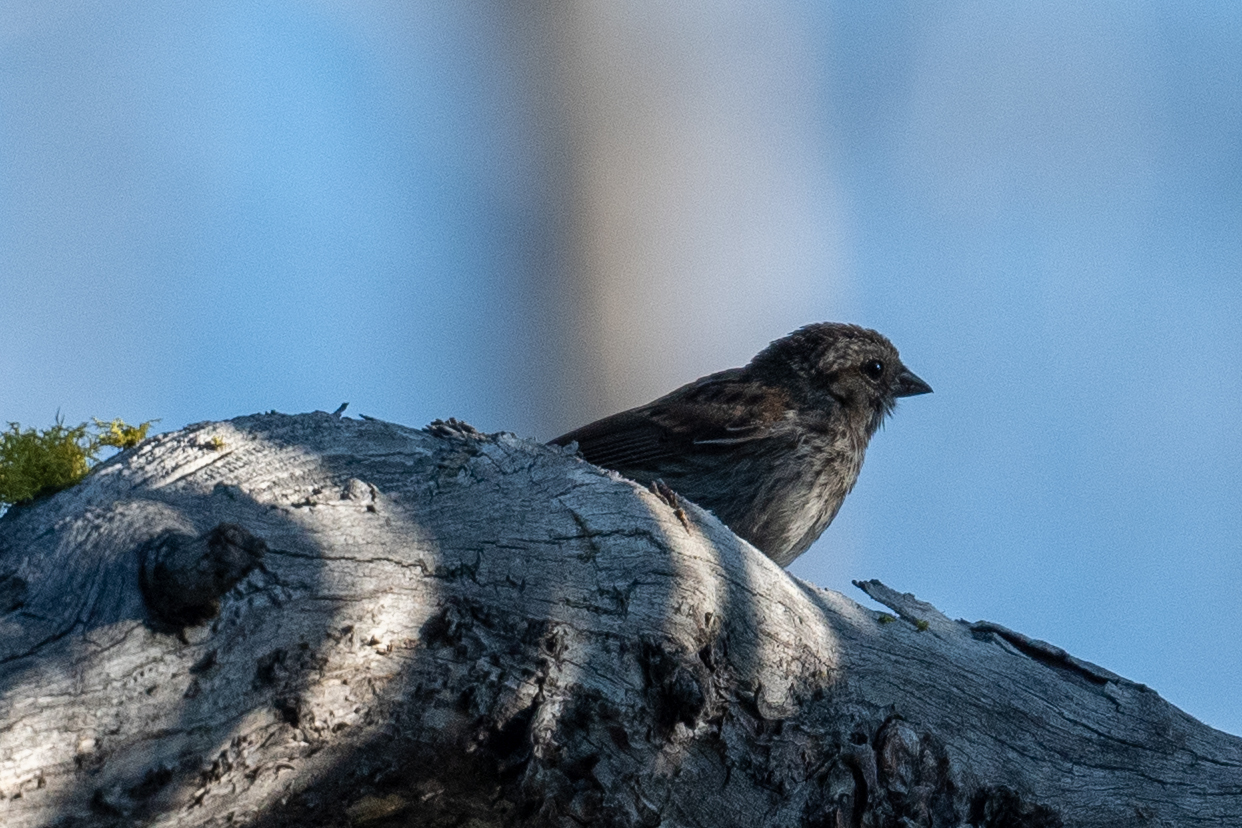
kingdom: Animalia
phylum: Chordata
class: Aves
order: Passeriformes
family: Passerellidae
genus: Melospiza
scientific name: Melospiza melodia
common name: Song sparrow
